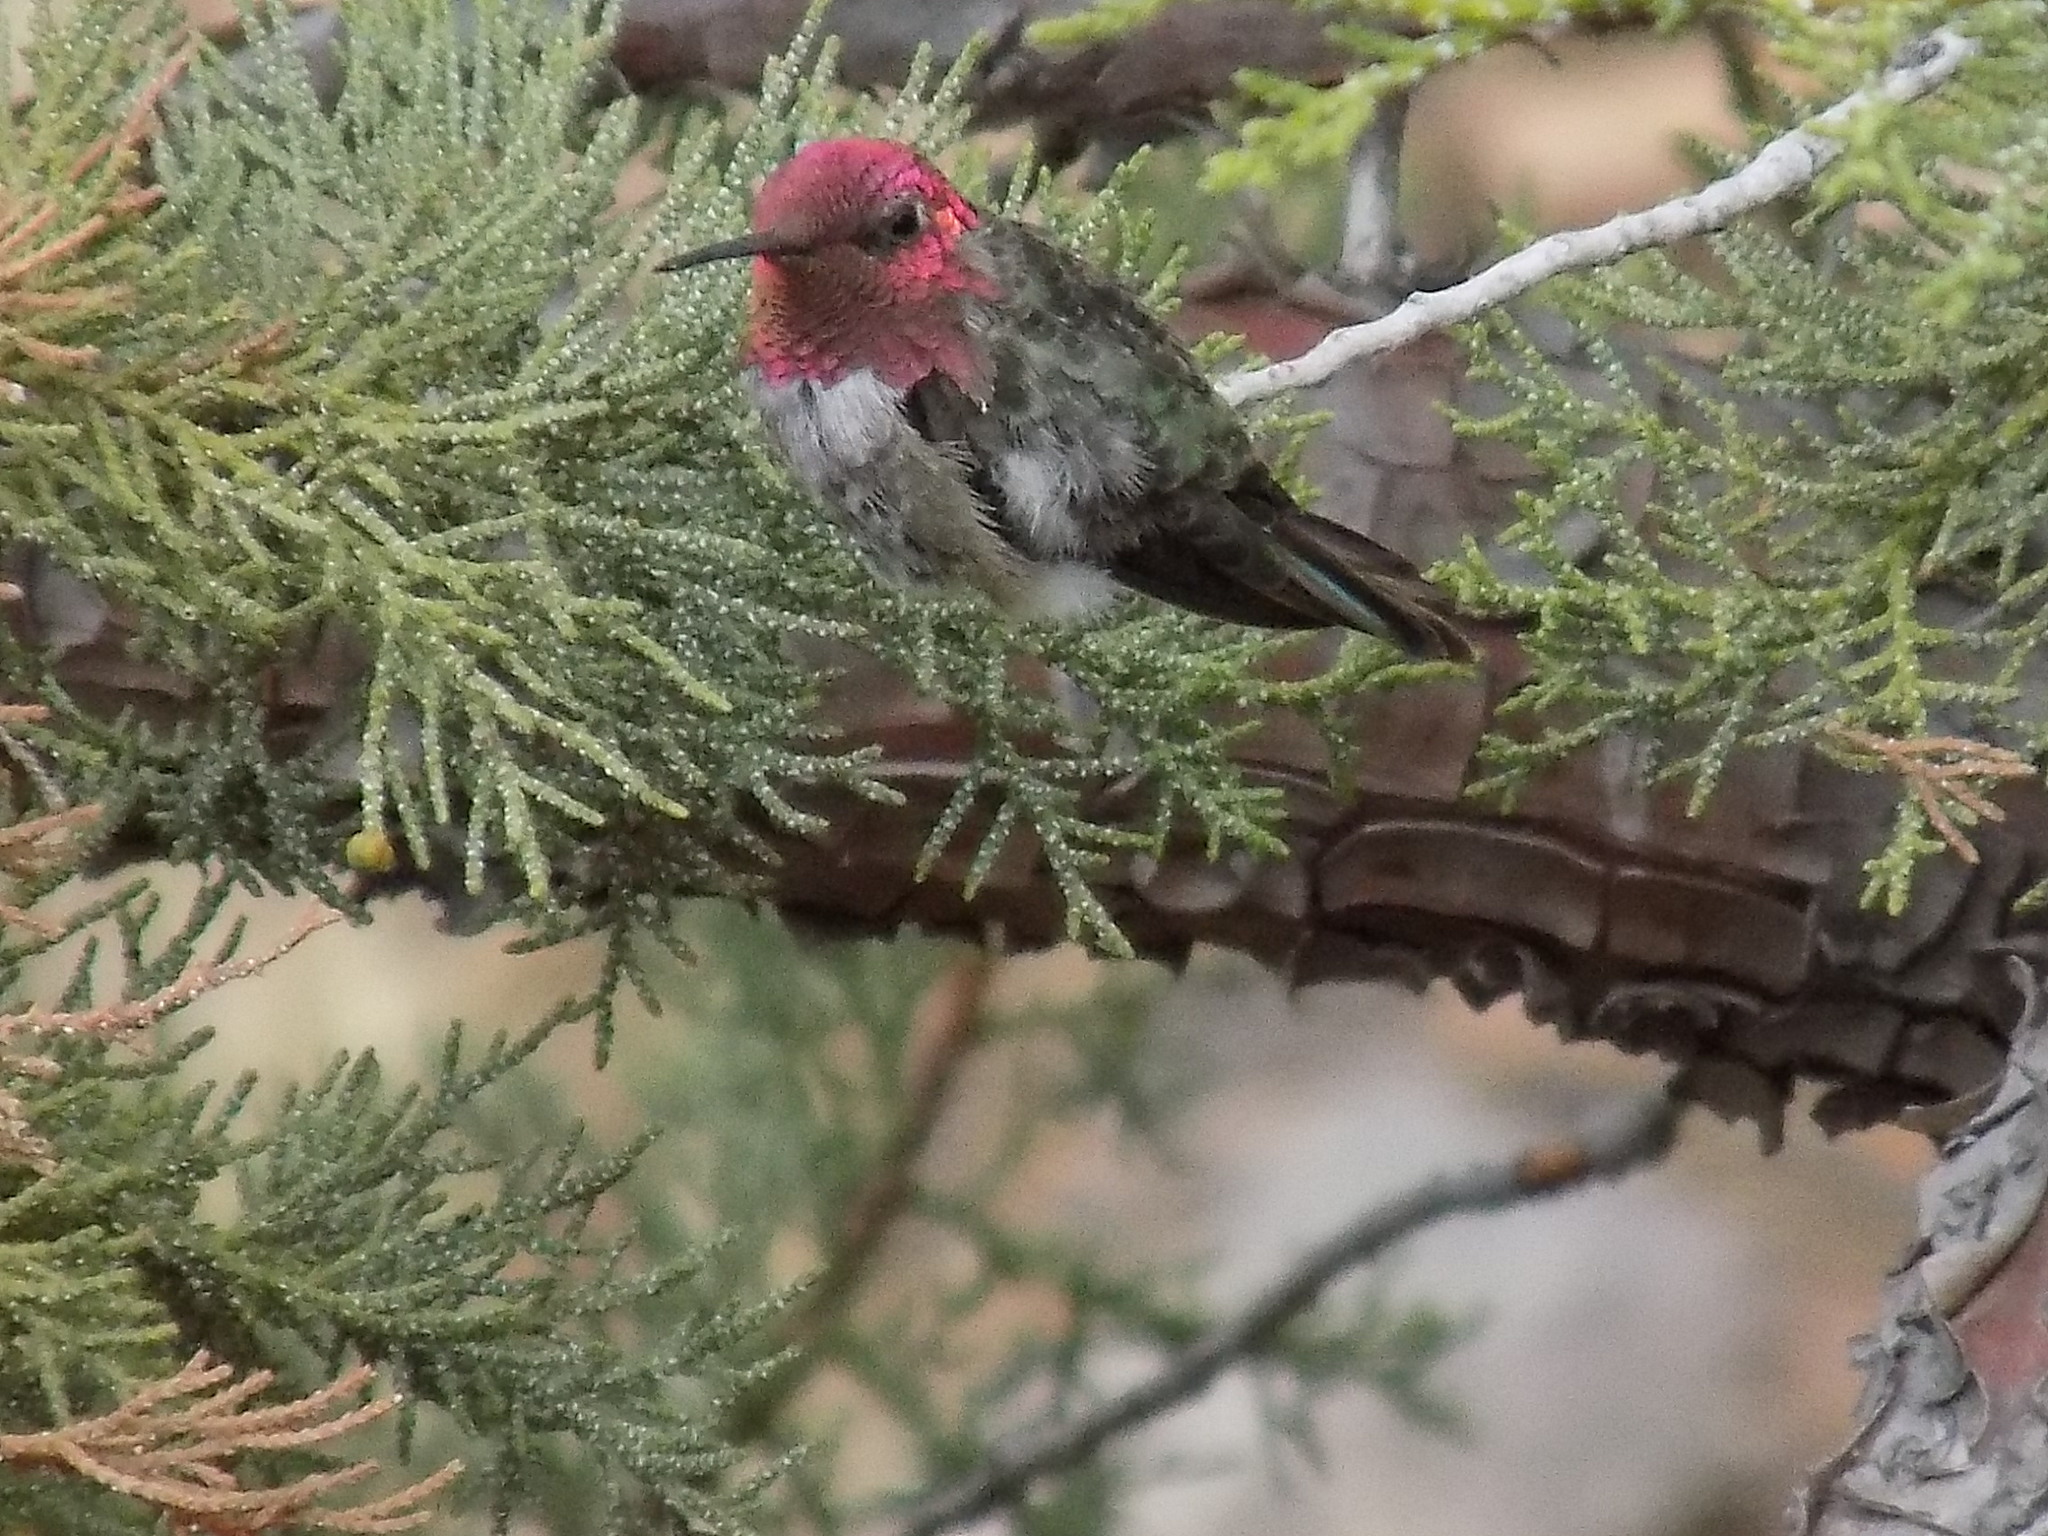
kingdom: Animalia
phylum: Chordata
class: Aves
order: Apodiformes
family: Trochilidae
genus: Calypte
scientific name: Calypte anna
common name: Anna's hummingbird
